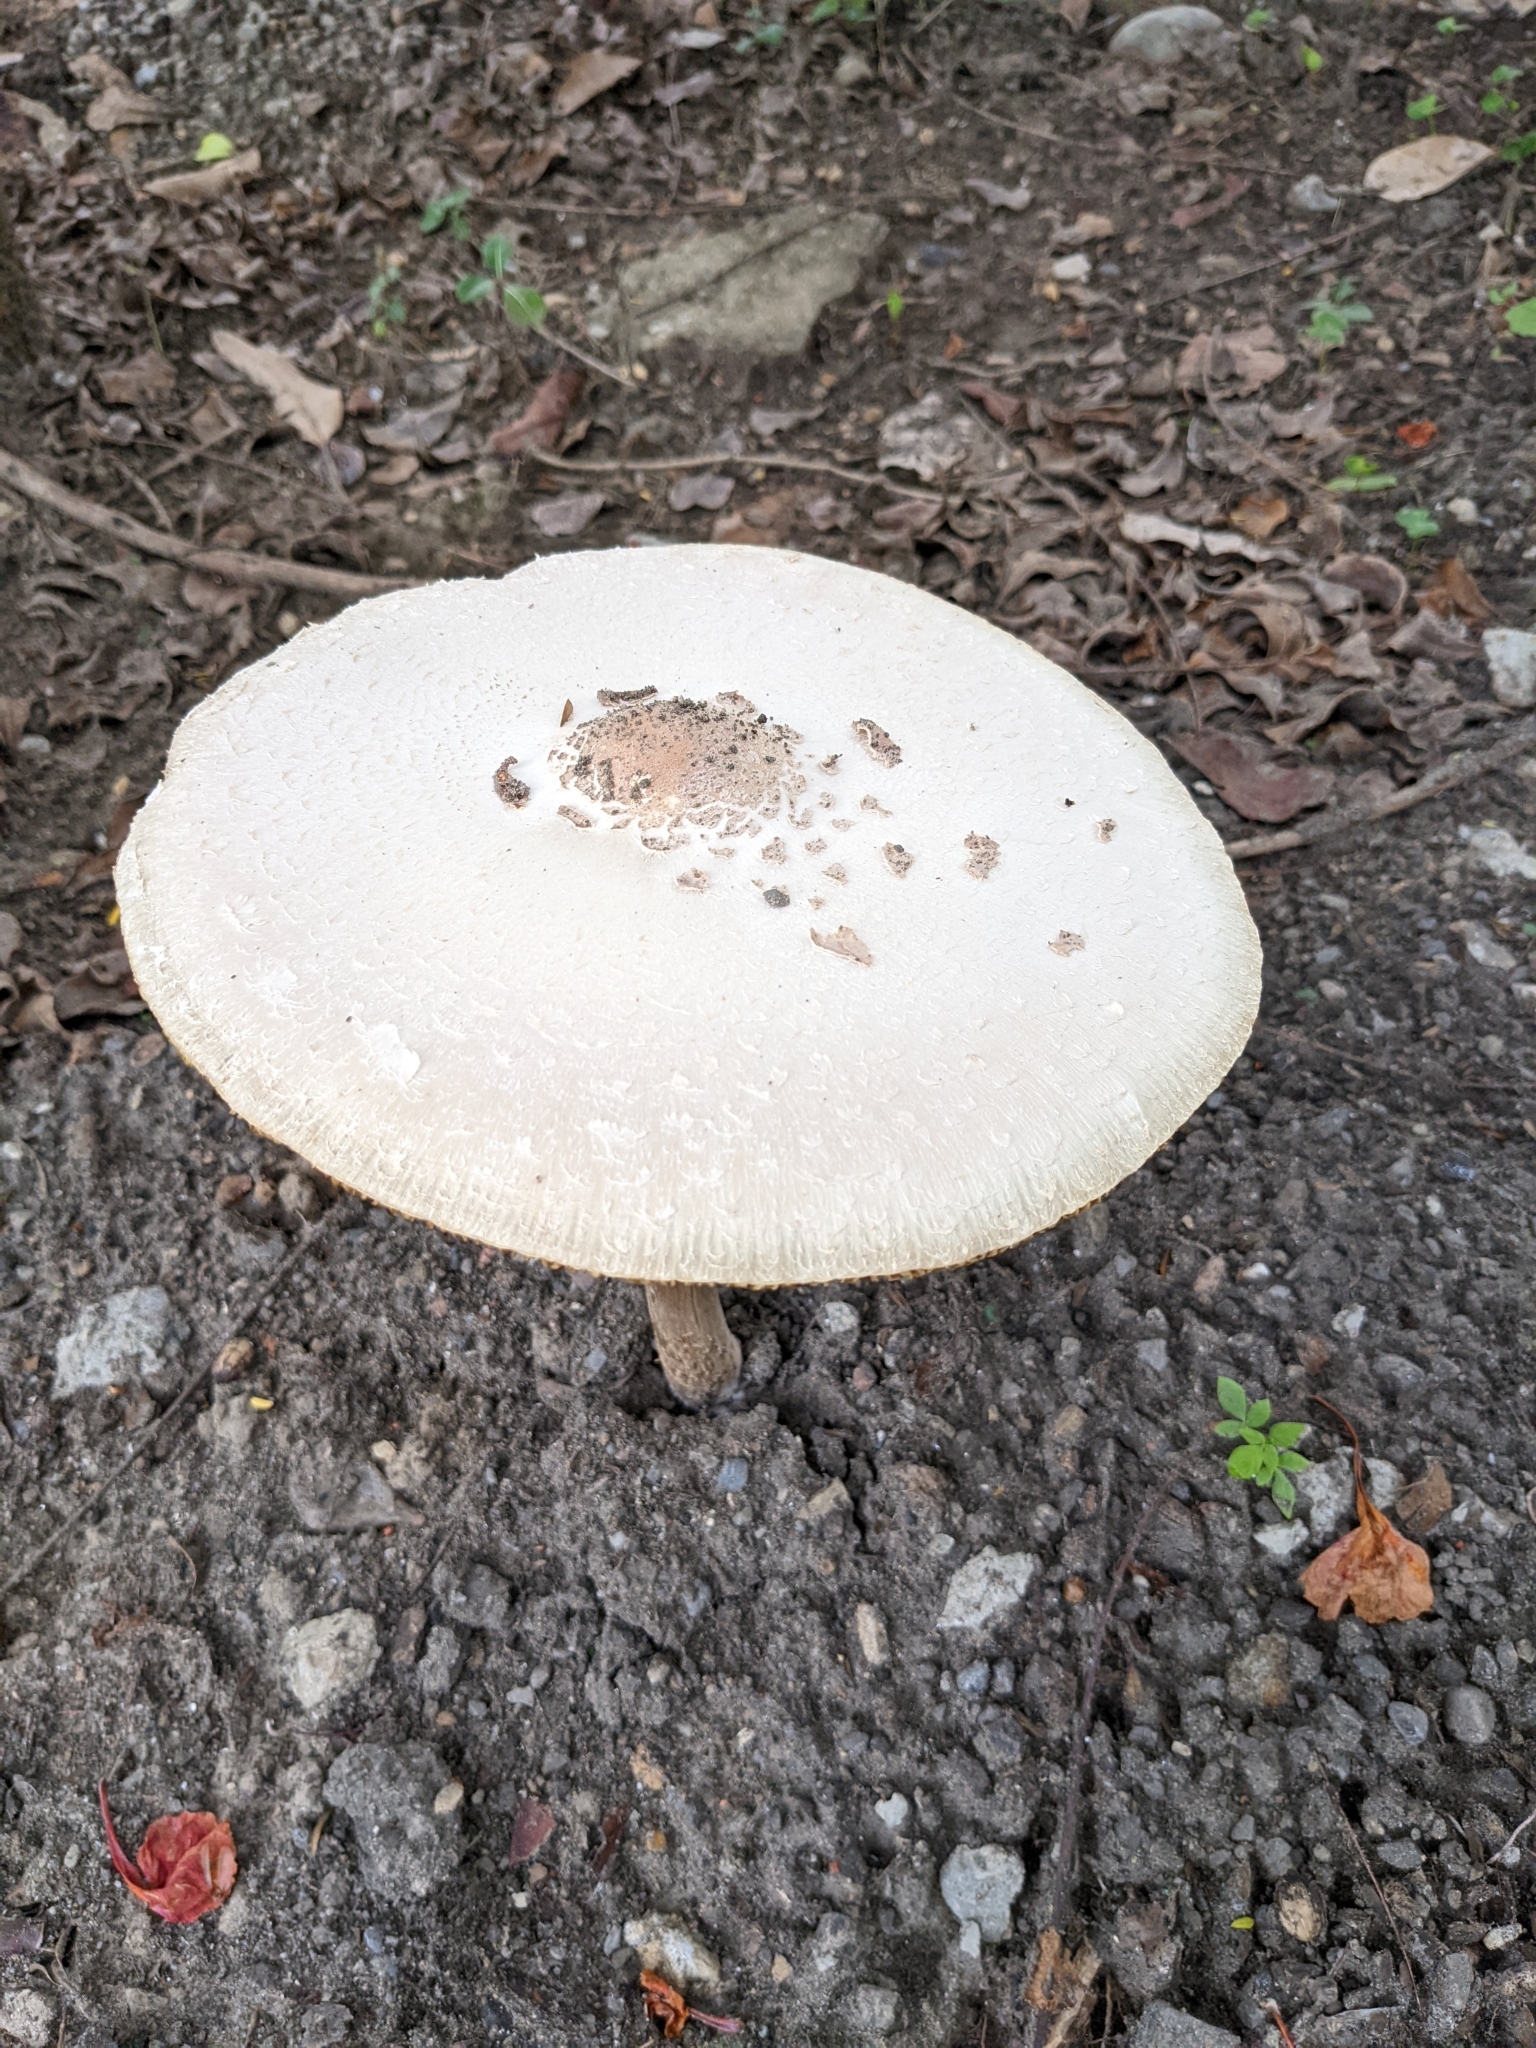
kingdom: Fungi
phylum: Basidiomycota
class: Agaricomycetes
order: Agaricales
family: Agaricaceae
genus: Chlorophyllum
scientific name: Chlorophyllum molybdites
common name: False parasol
